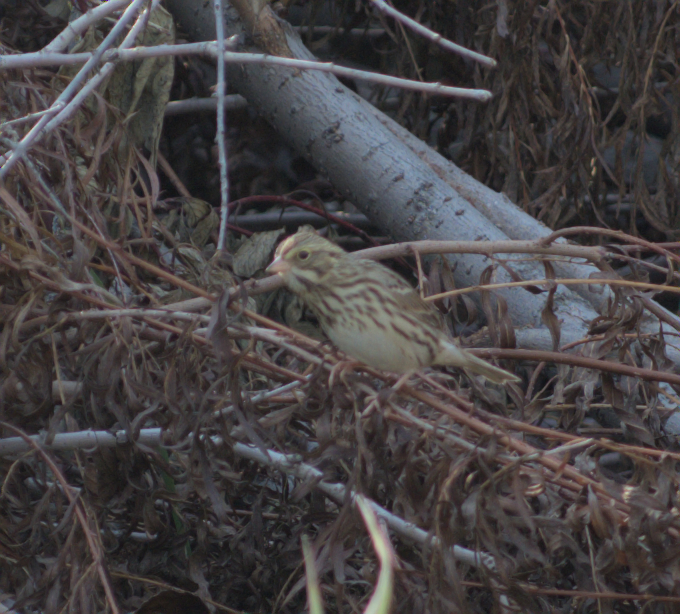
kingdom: Animalia
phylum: Chordata
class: Aves
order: Passeriformes
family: Passerellidae
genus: Passerculus
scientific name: Passerculus sandwichensis
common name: Savannah sparrow
